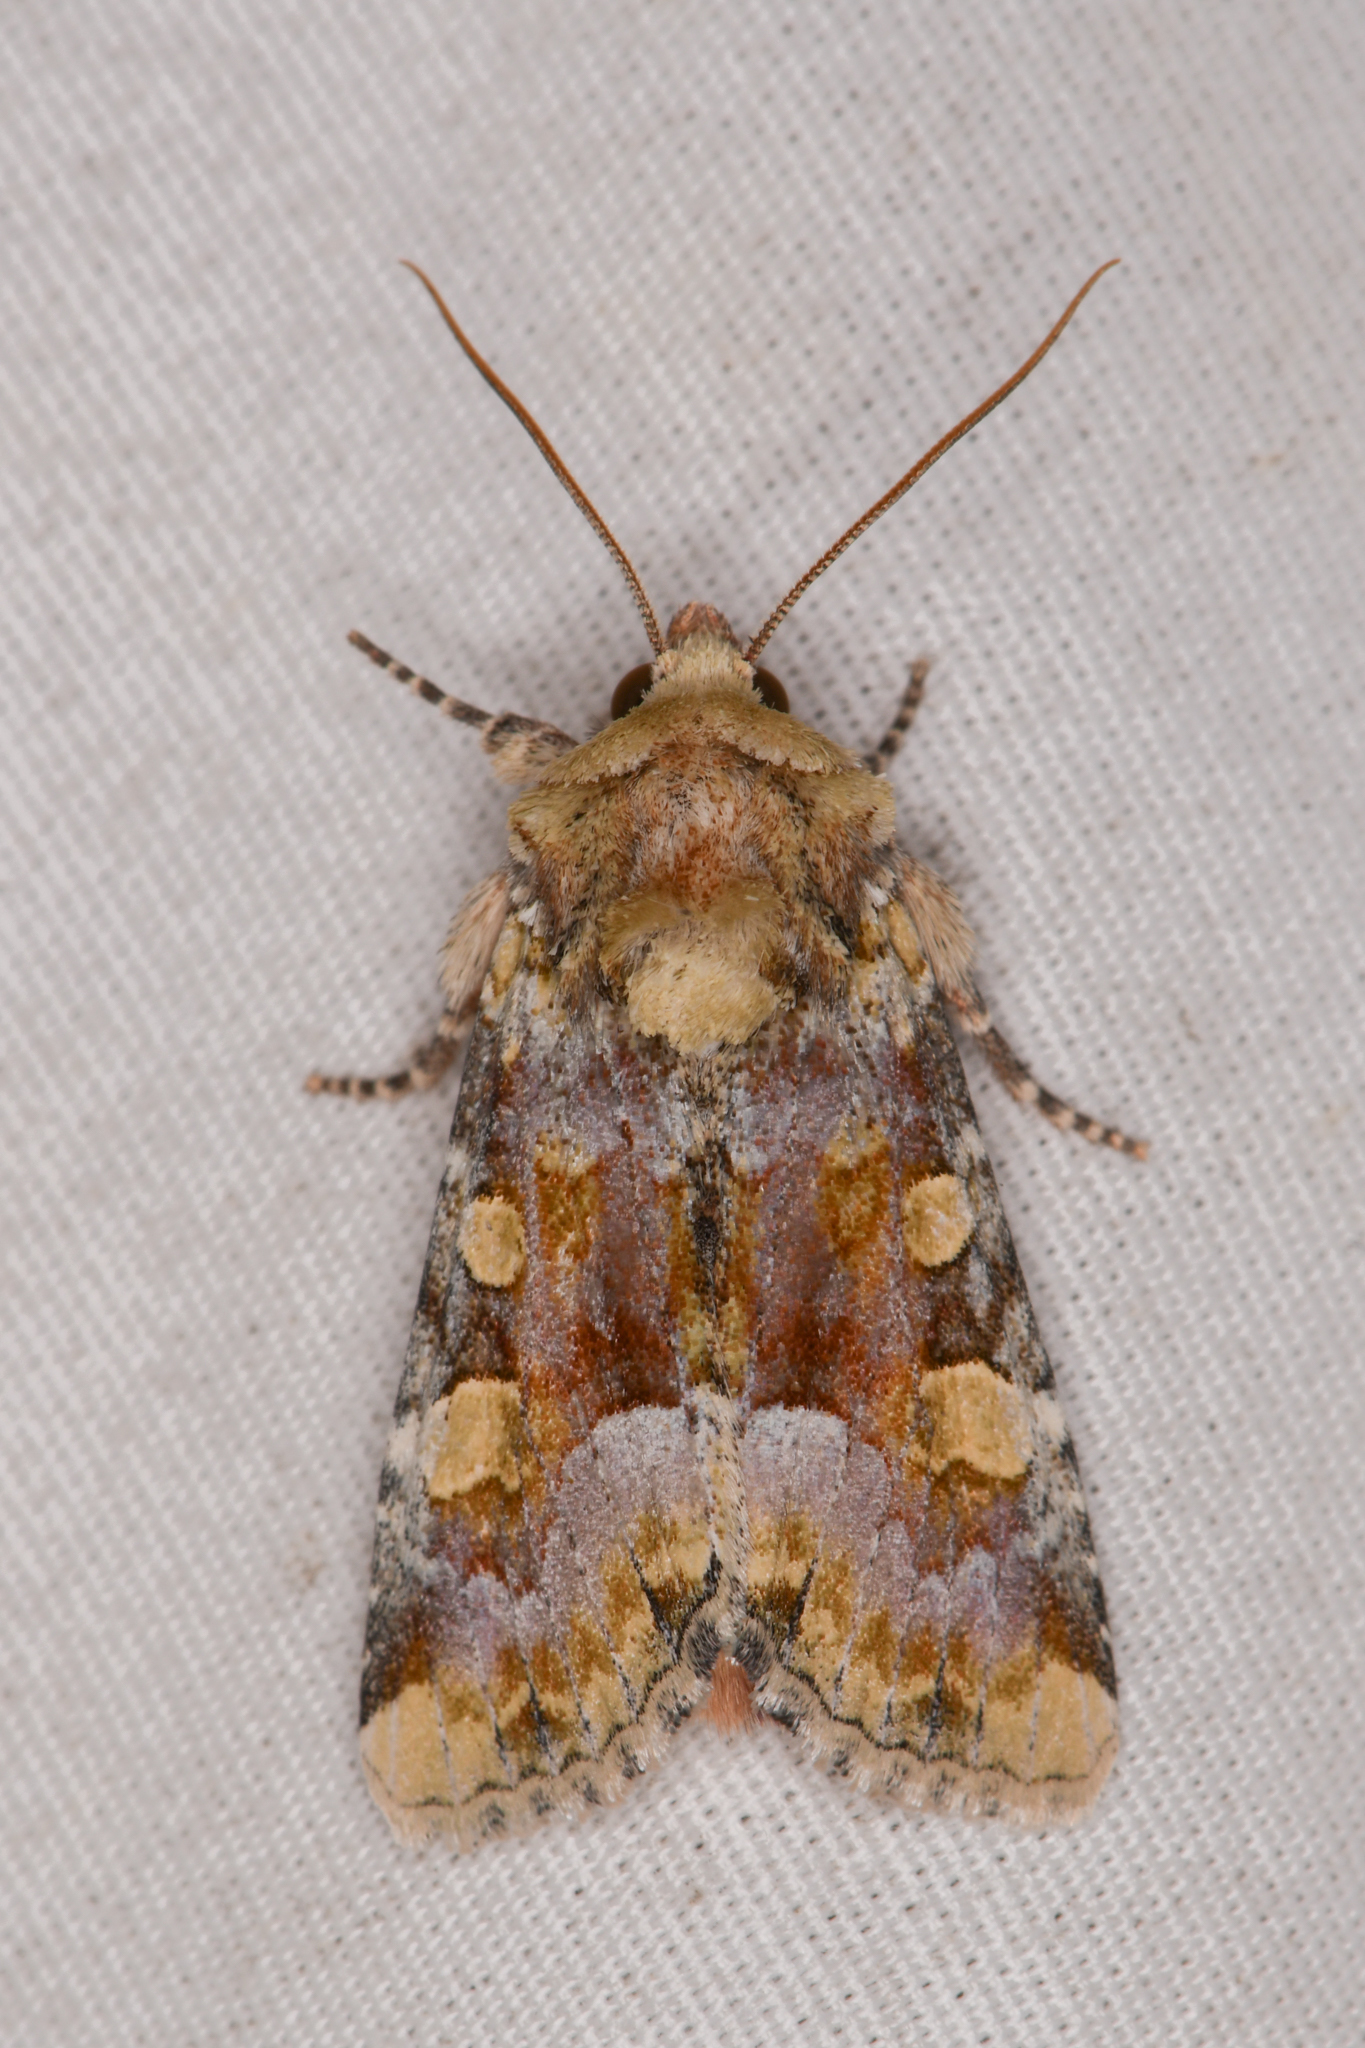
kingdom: Animalia
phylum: Arthropoda
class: Insecta
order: Lepidoptera
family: Noctuidae
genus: Oligia
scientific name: Oligia violacea
